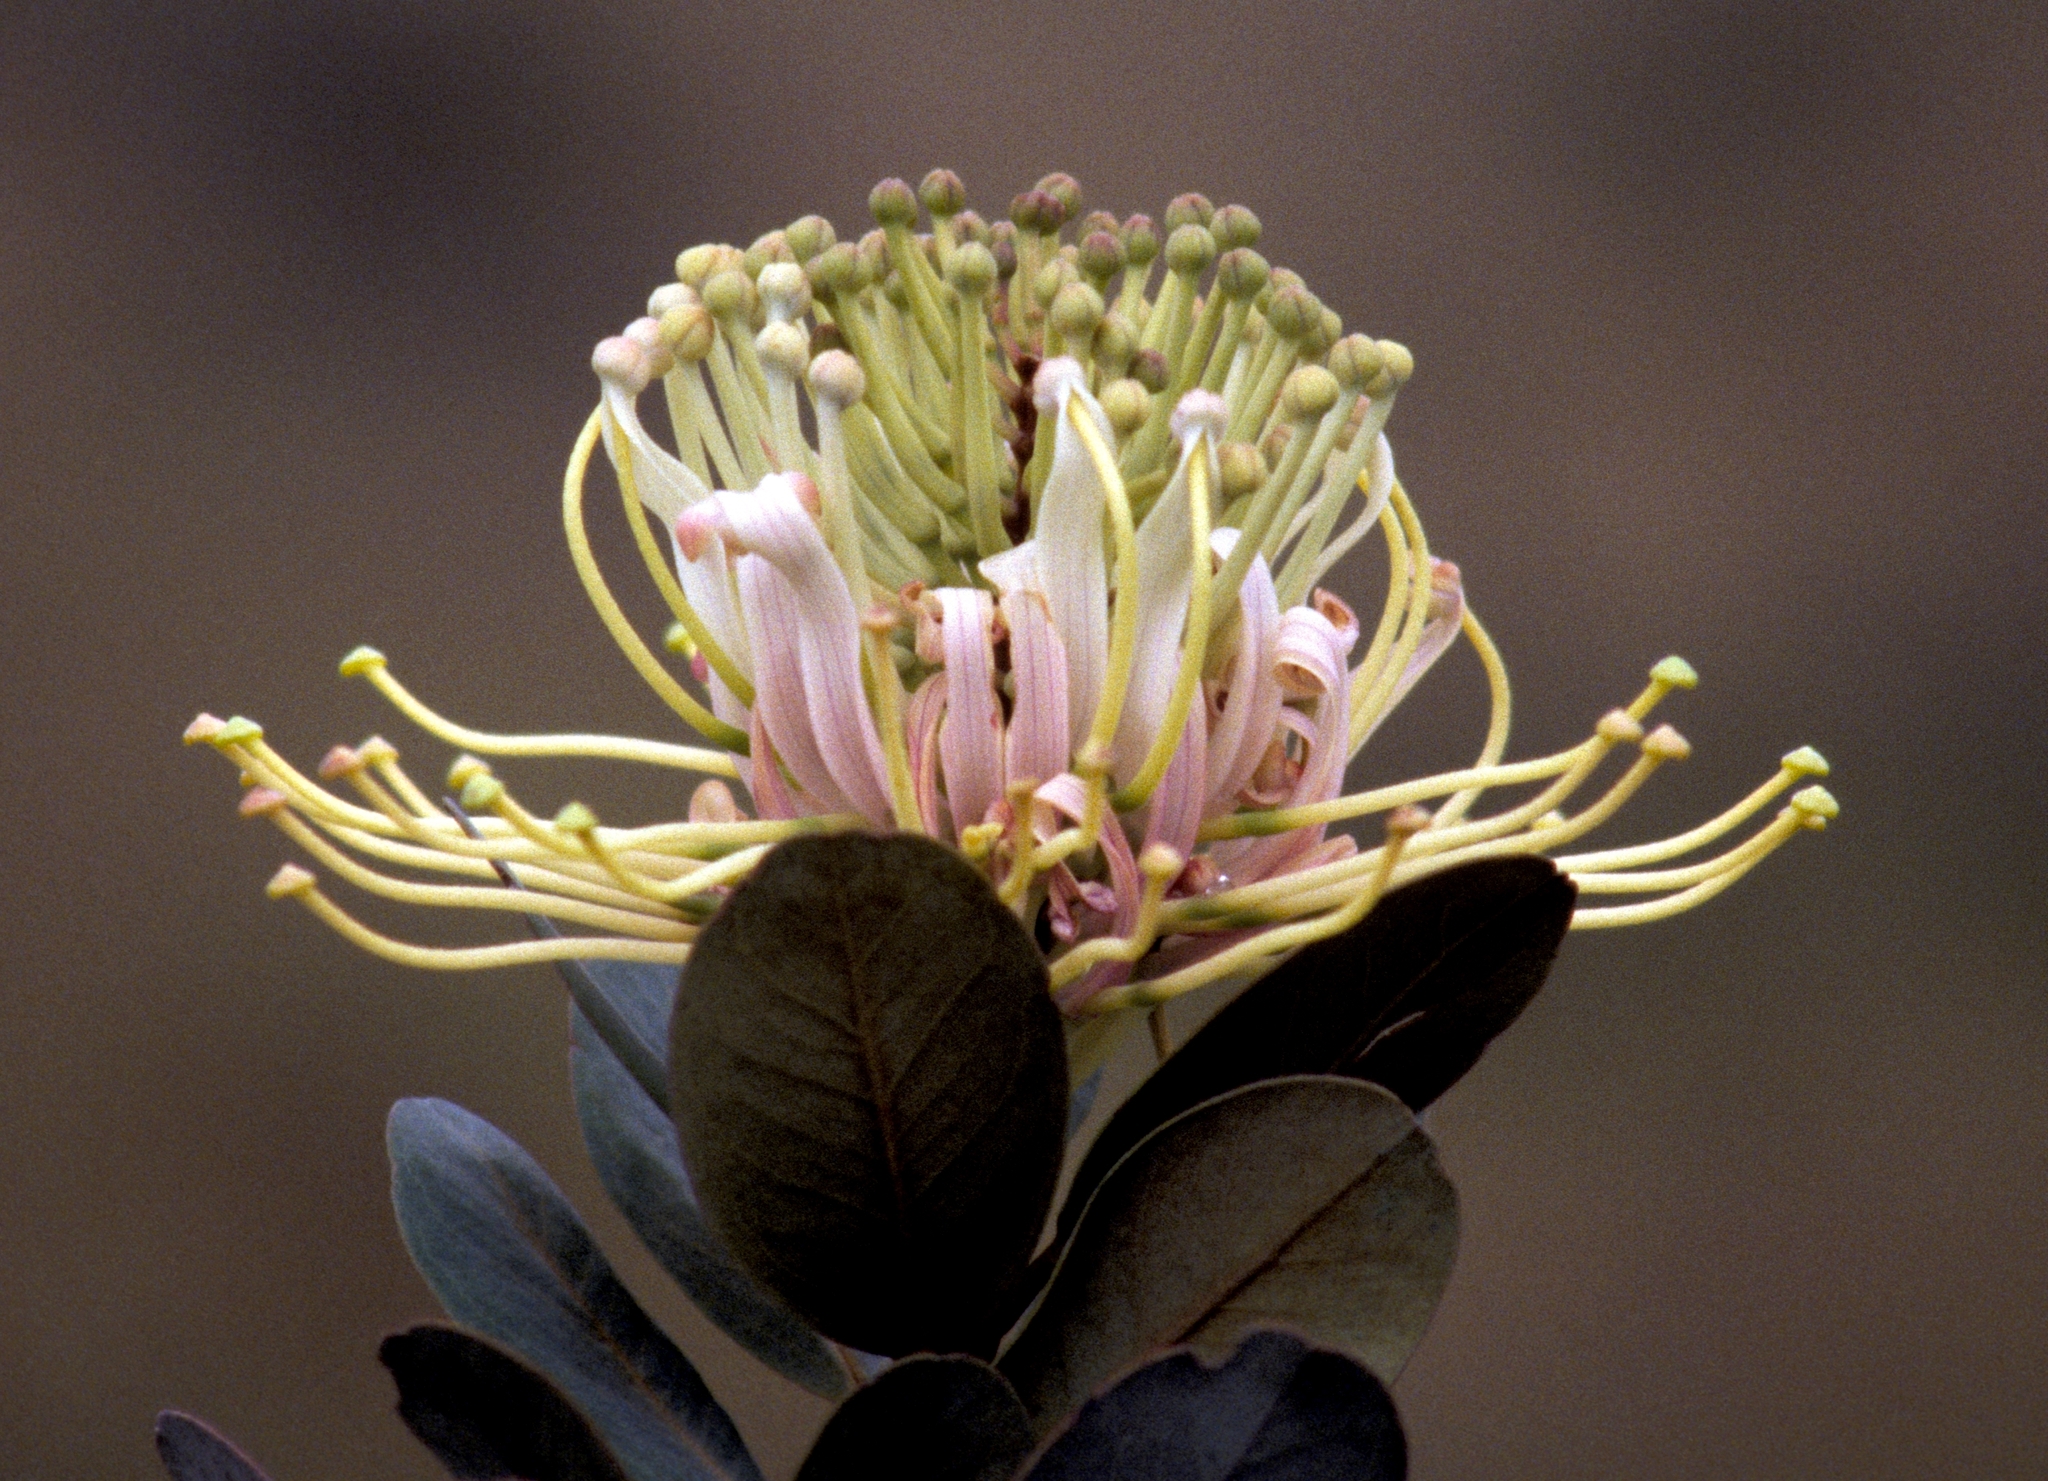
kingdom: Plantae
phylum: Tracheophyta
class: Magnoliopsida
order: Proteales
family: Proteaceae
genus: Oreocallis
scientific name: Oreocallis grandiflora
